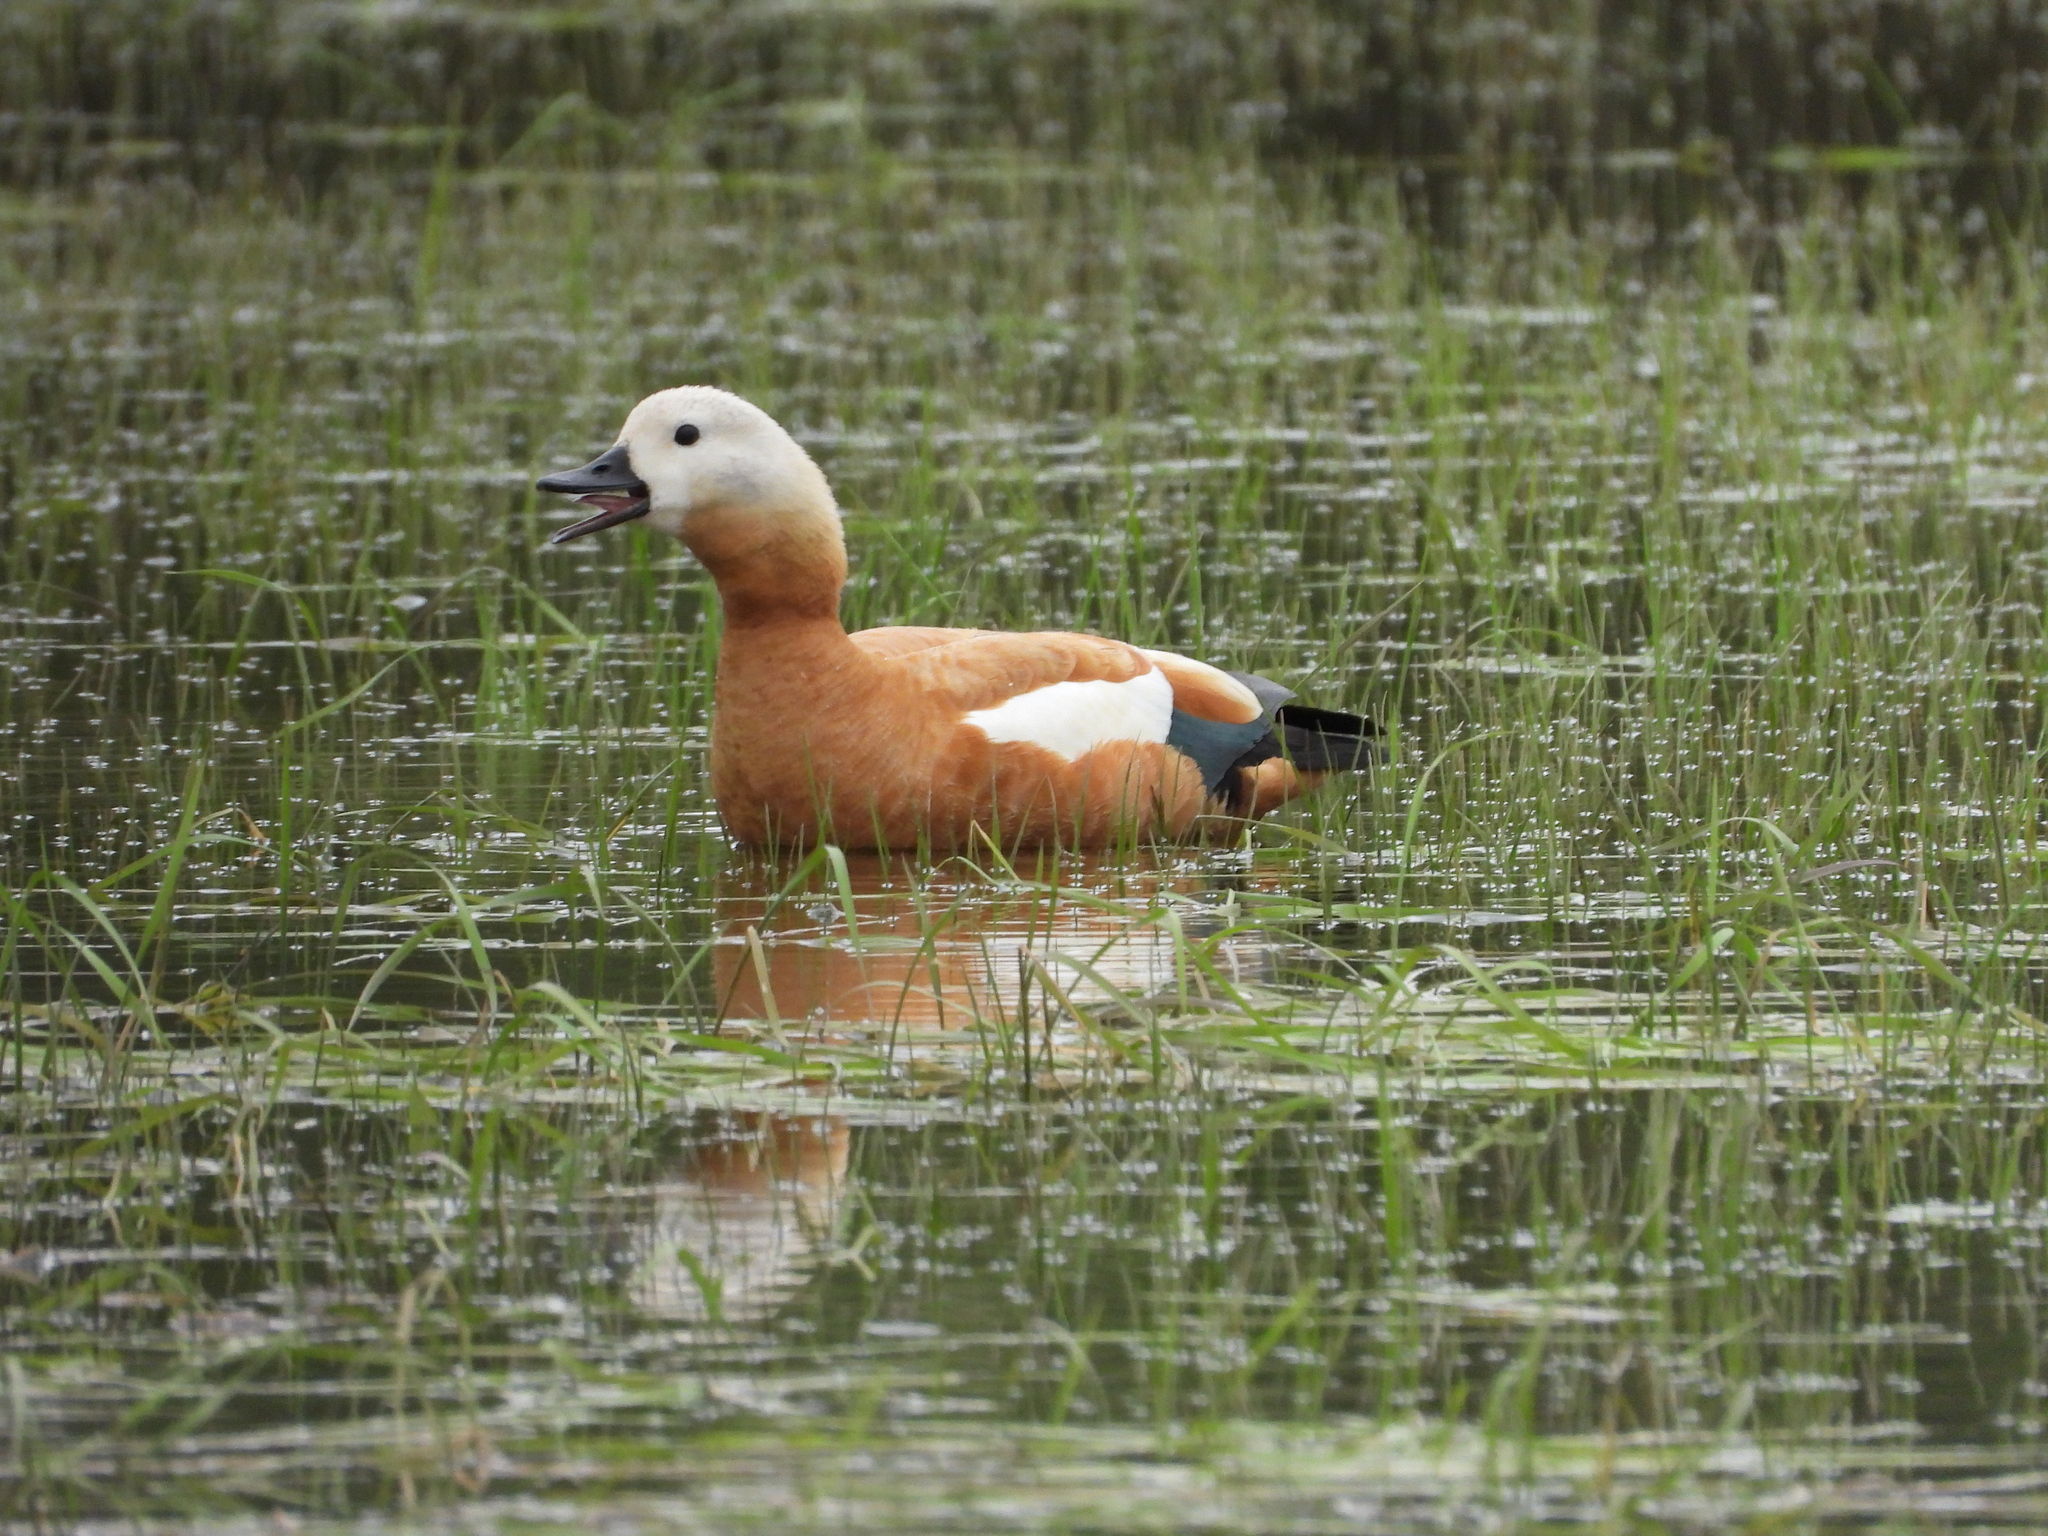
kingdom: Animalia
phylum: Chordata
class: Aves
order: Anseriformes
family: Anatidae
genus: Tadorna
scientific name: Tadorna ferruginea
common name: Ruddy shelduck
